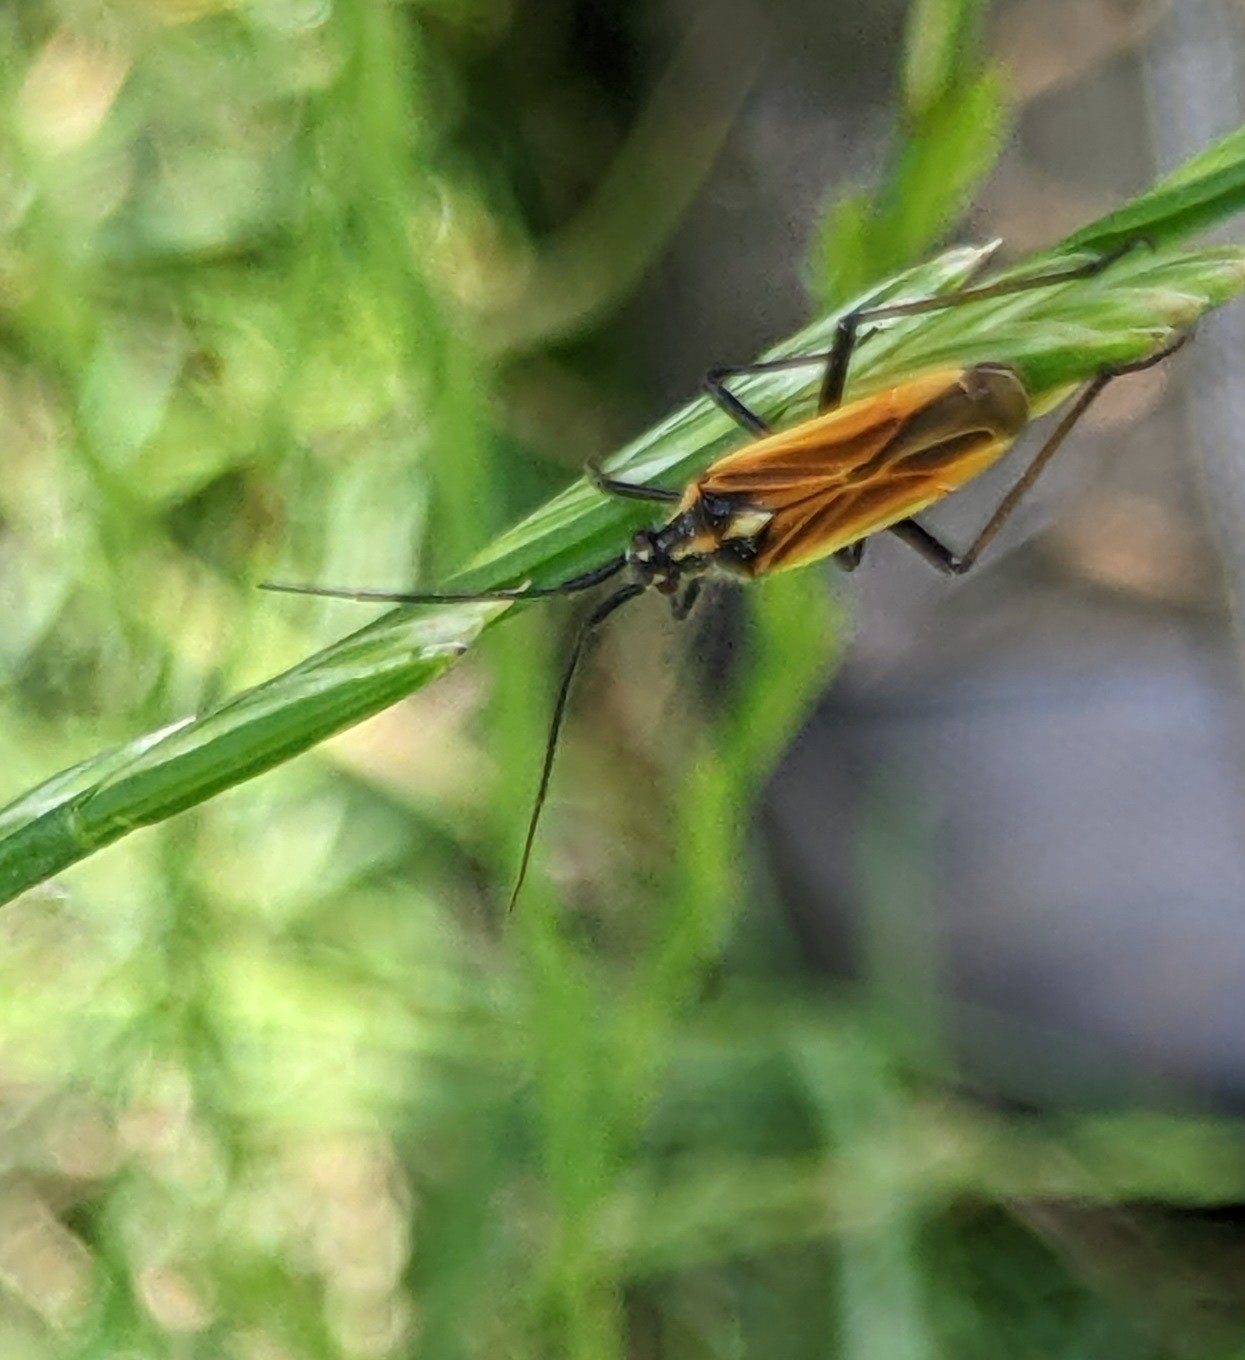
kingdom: Animalia
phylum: Arthropoda
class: Insecta
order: Hemiptera
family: Miridae
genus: Leptopterna
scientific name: Leptopterna dolabrata
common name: Meadow plant bug
